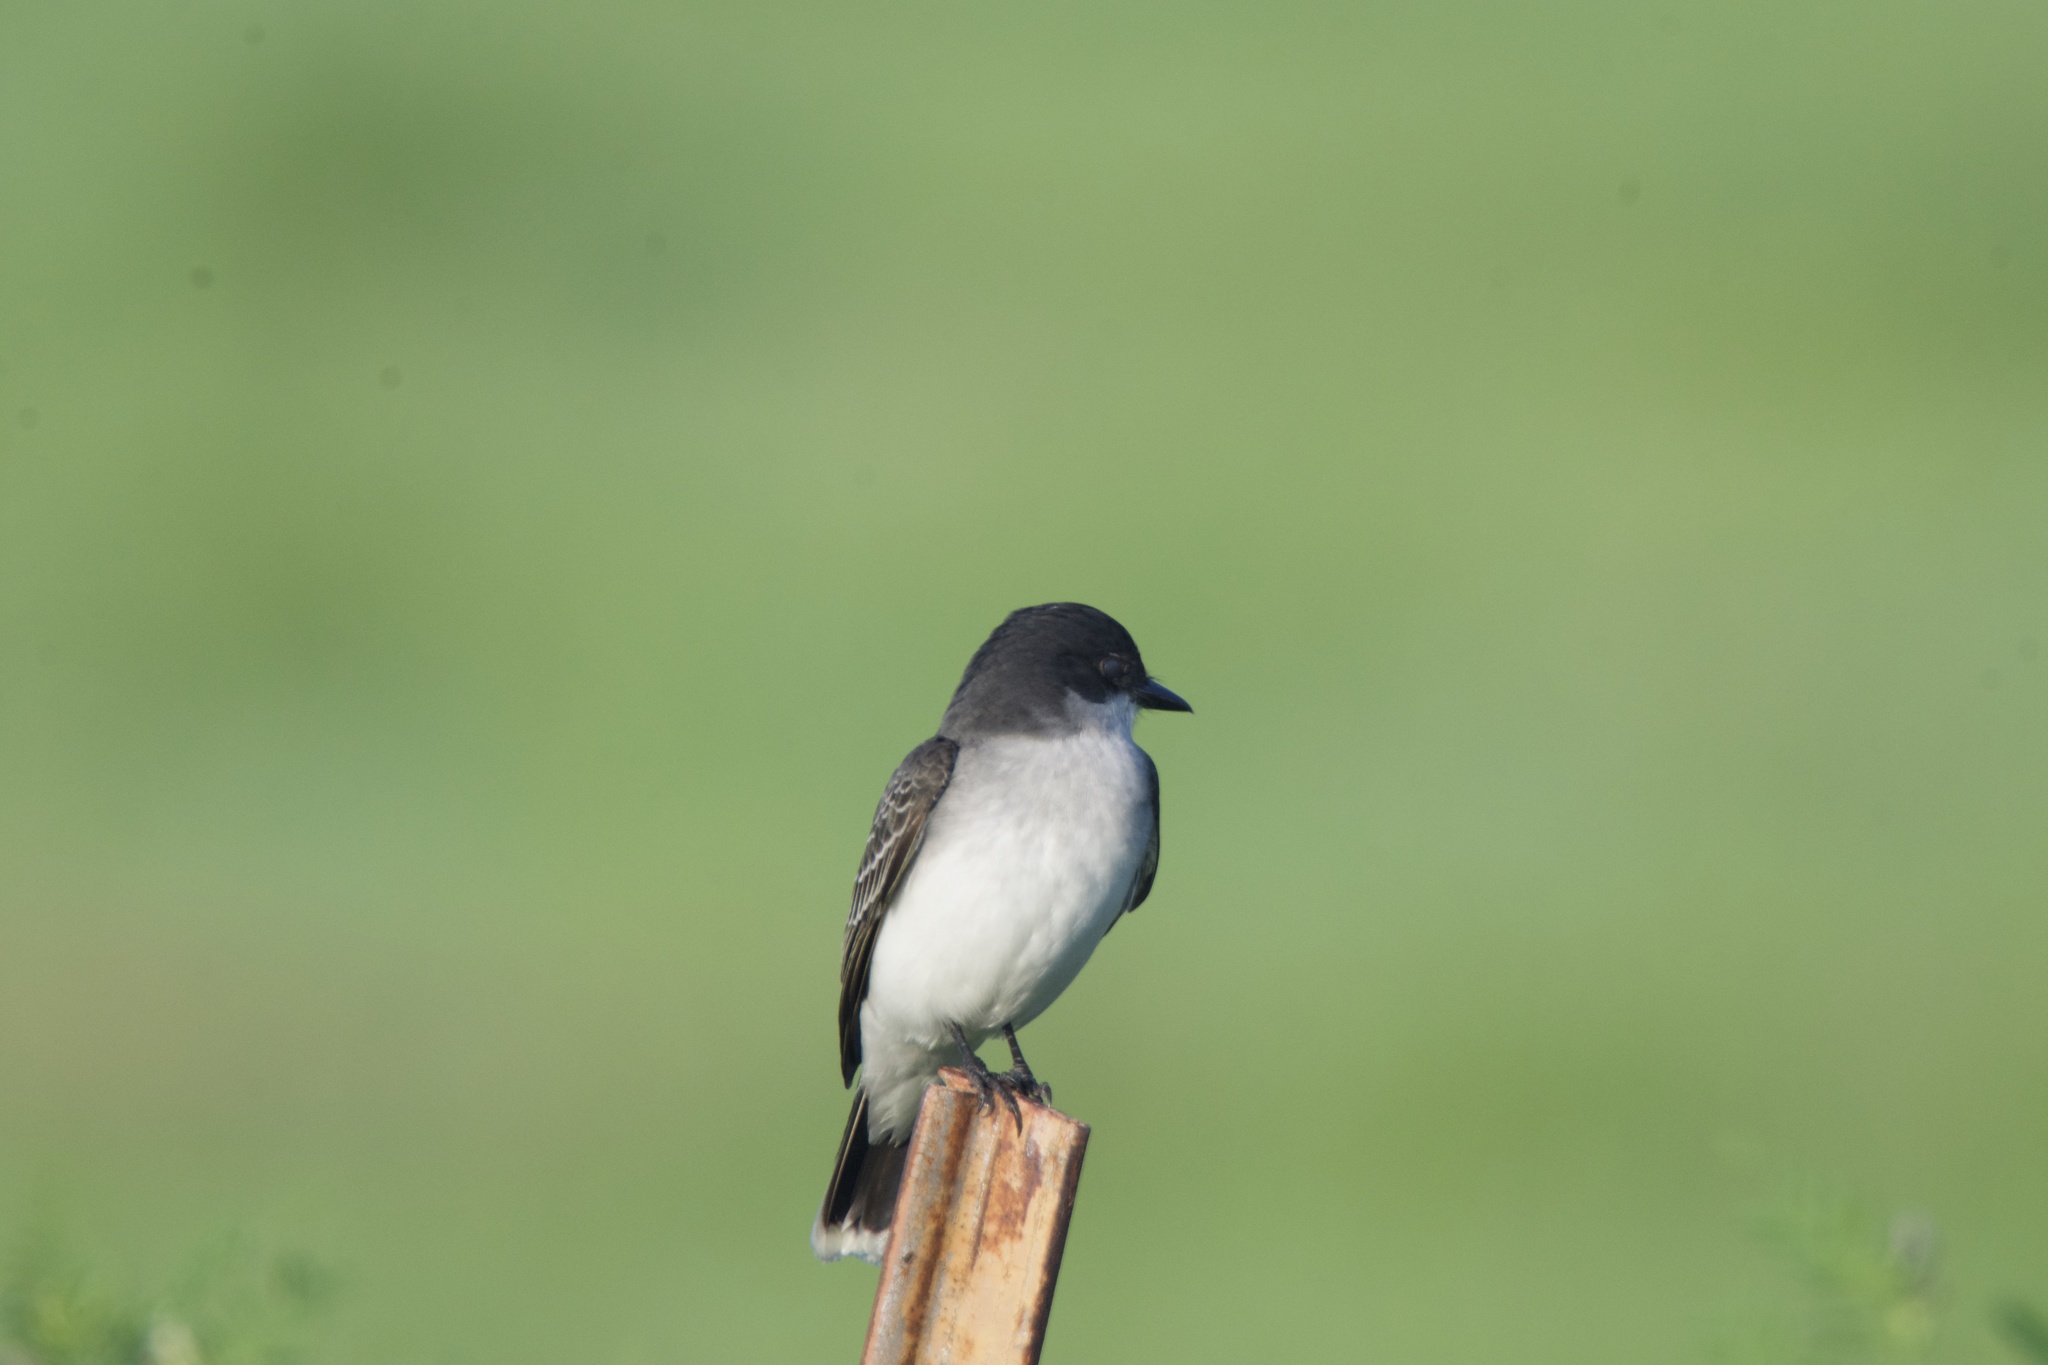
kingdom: Animalia
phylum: Chordata
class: Aves
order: Passeriformes
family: Tyrannidae
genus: Tyrannus
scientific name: Tyrannus tyrannus
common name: Eastern kingbird
